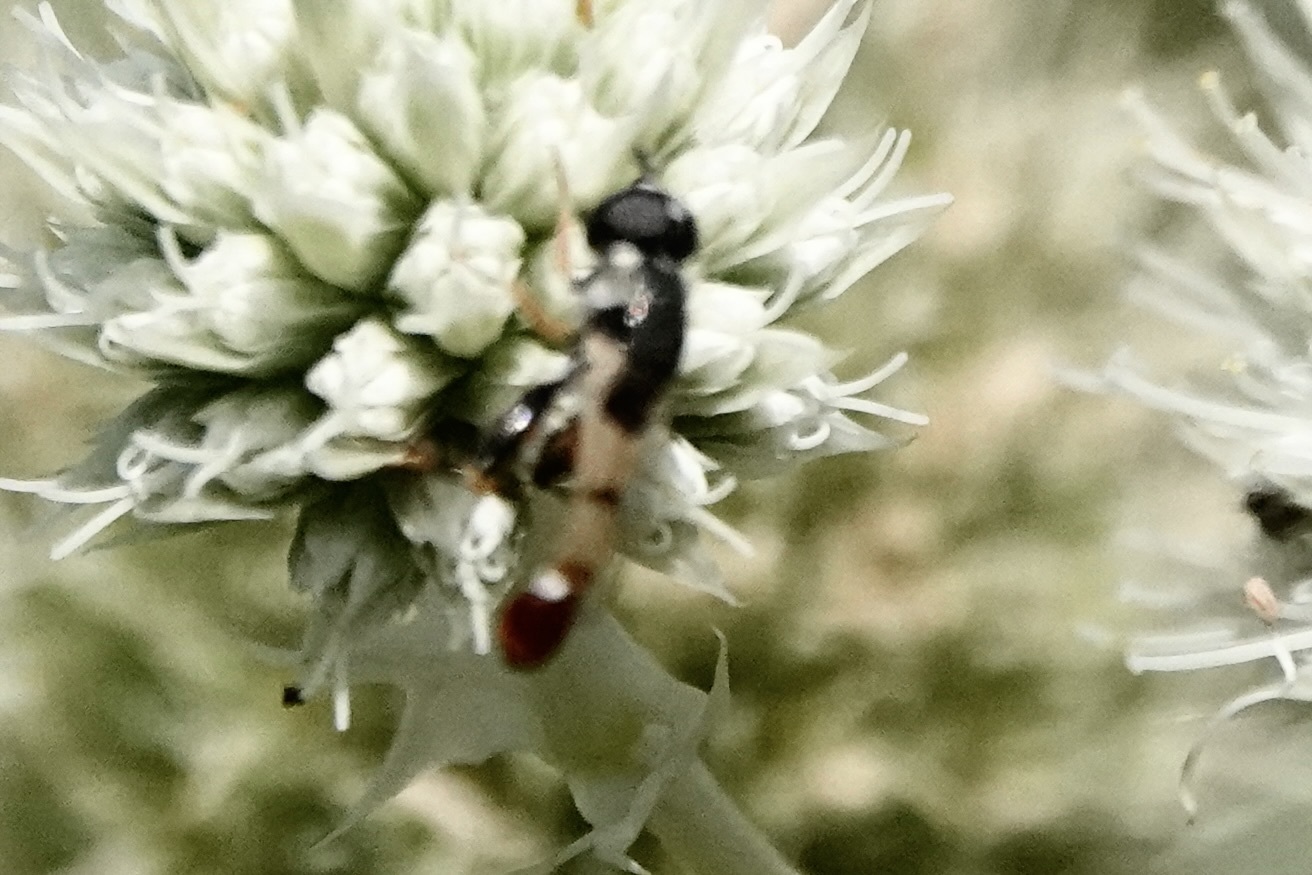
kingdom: Animalia
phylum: Arthropoda
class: Insecta
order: Diptera
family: Syrphidae
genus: Syritta
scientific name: Syritta flaviventris
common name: Syrphid fly
